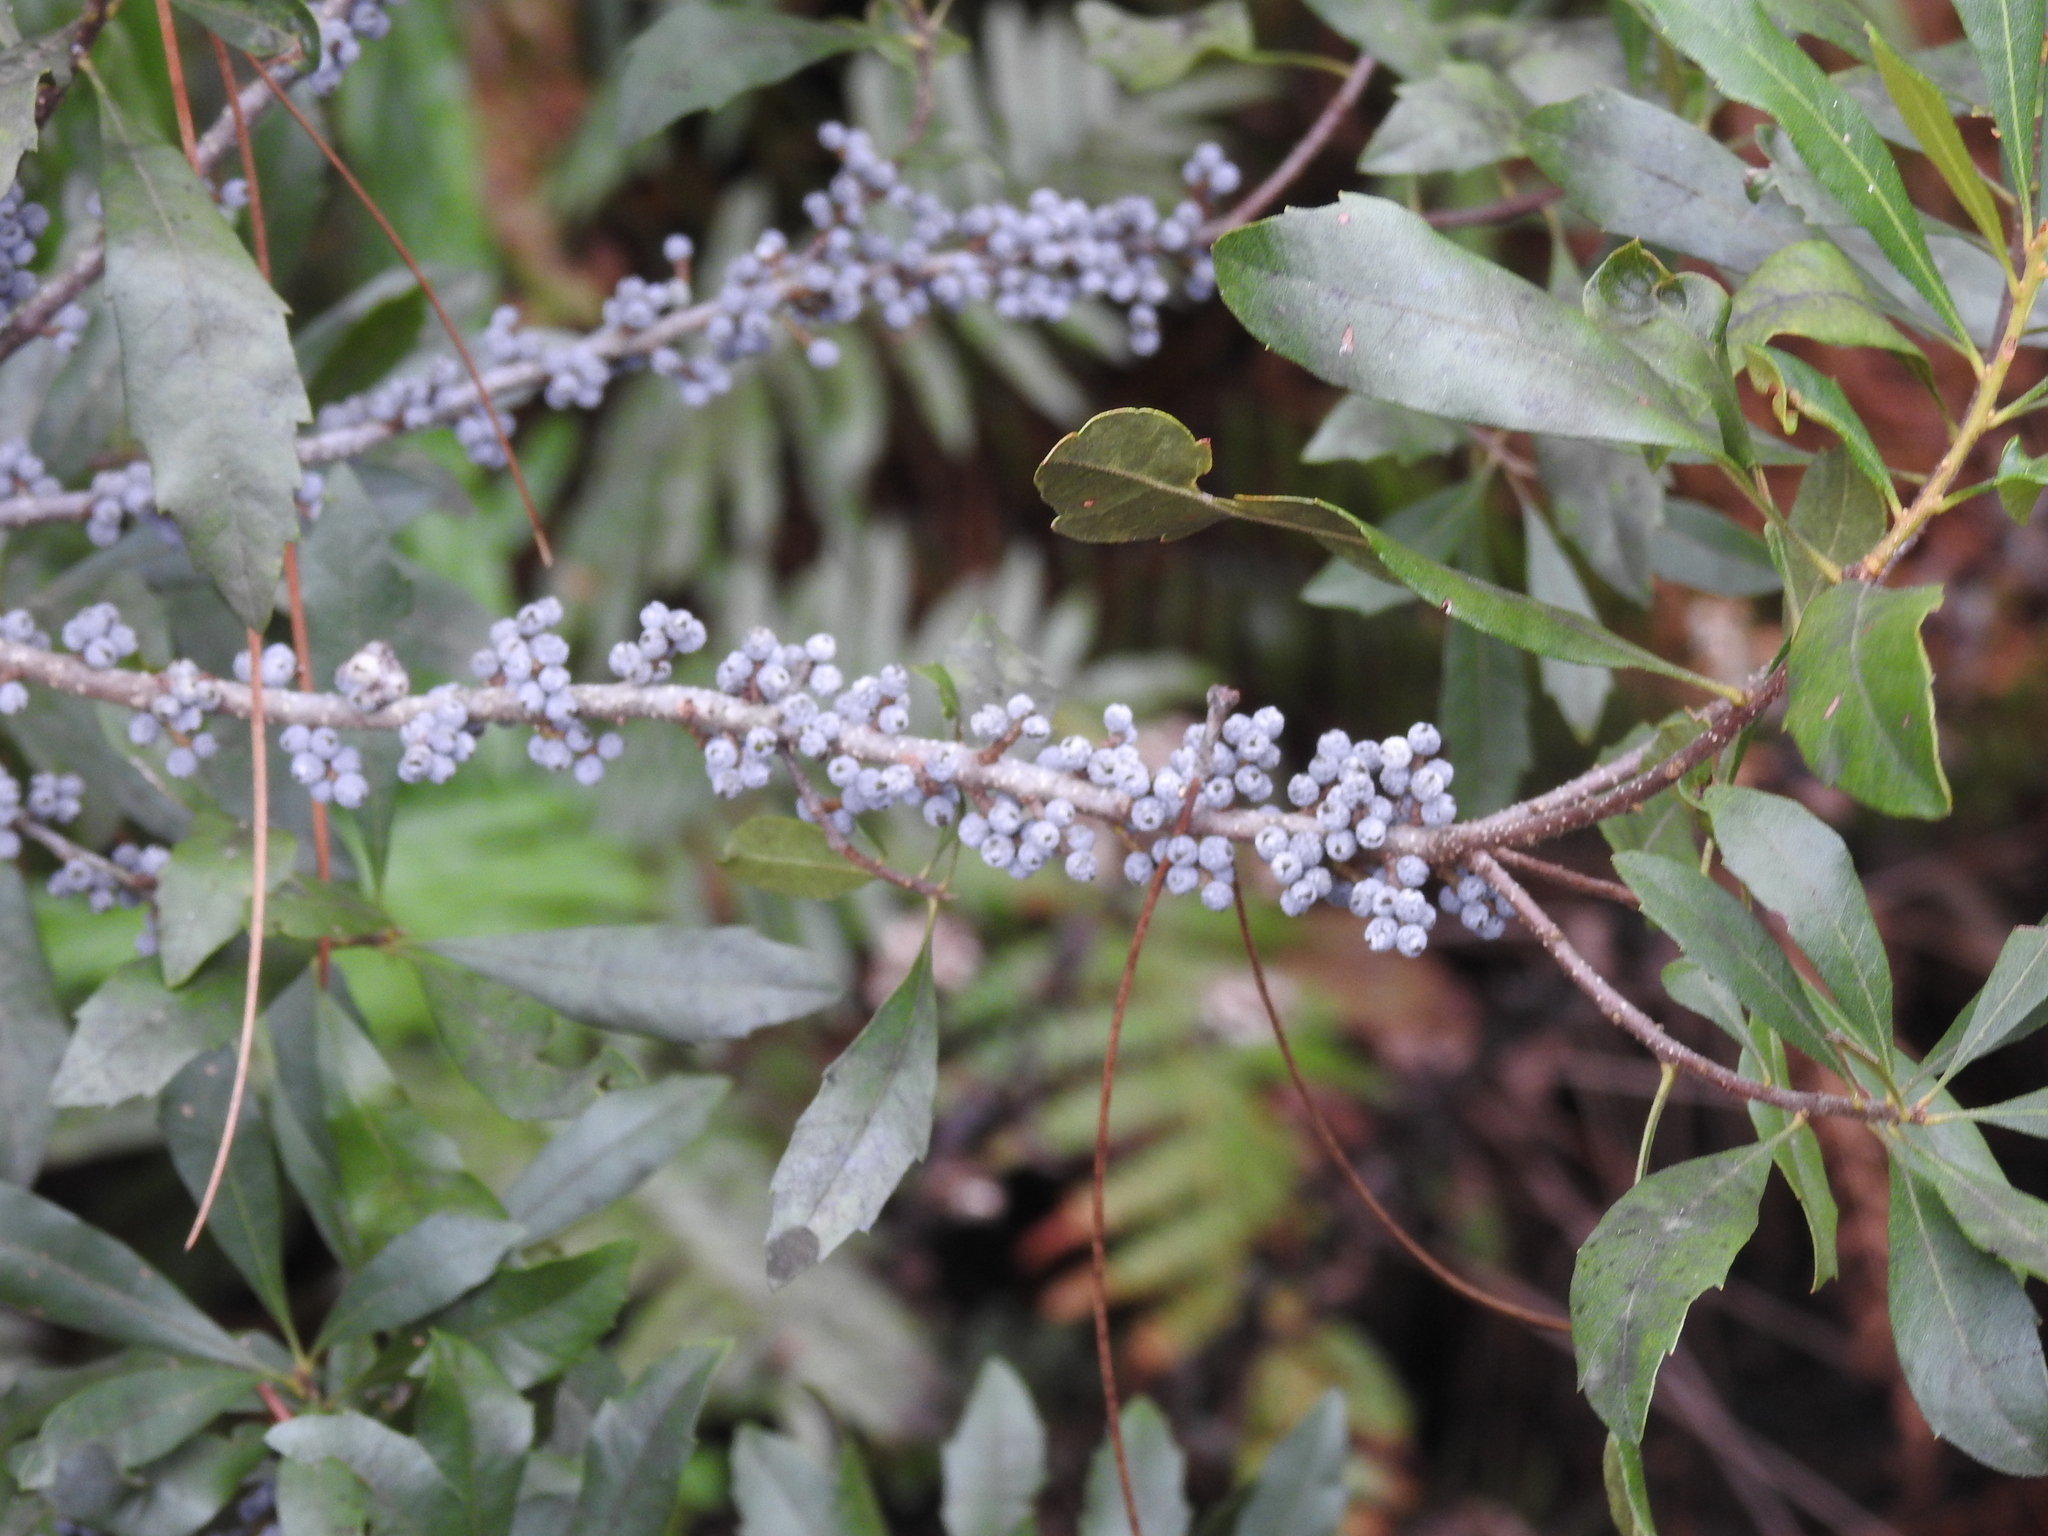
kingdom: Plantae
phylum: Tracheophyta
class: Magnoliopsida
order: Fagales
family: Myricaceae
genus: Morella
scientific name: Morella cerifera
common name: Wax myrtle
